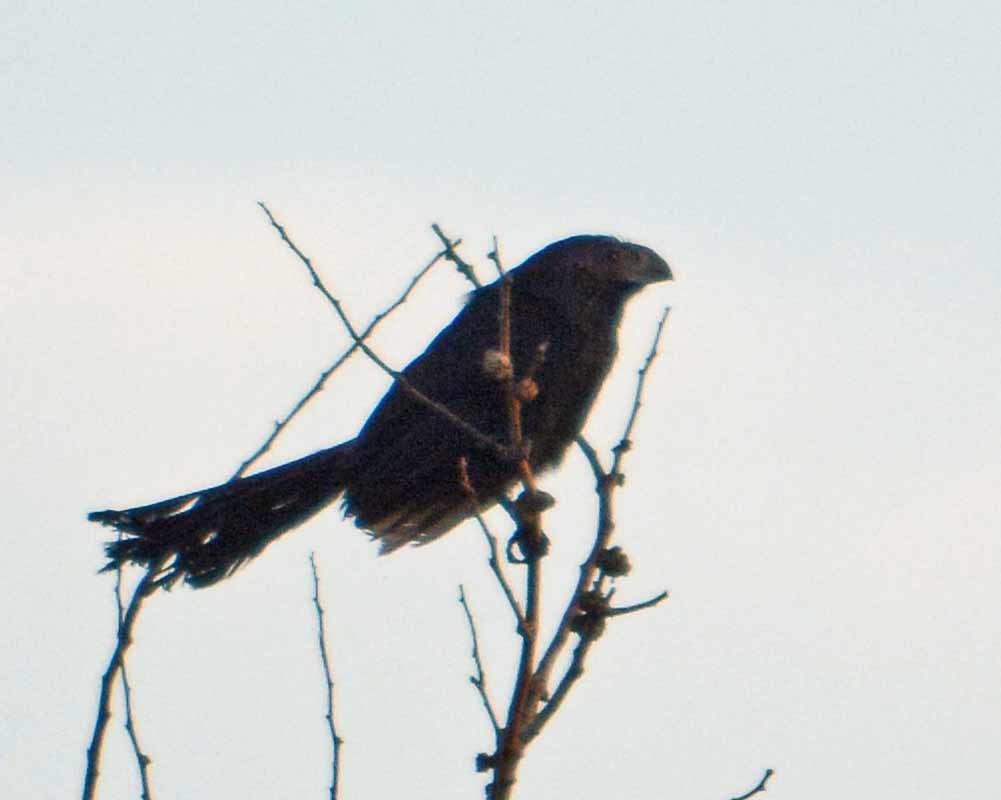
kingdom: Animalia
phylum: Chordata
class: Aves
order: Cuculiformes
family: Cuculidae
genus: Crotophaga
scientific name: Crotophaga sulcirostris
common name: Groove-billed ani
